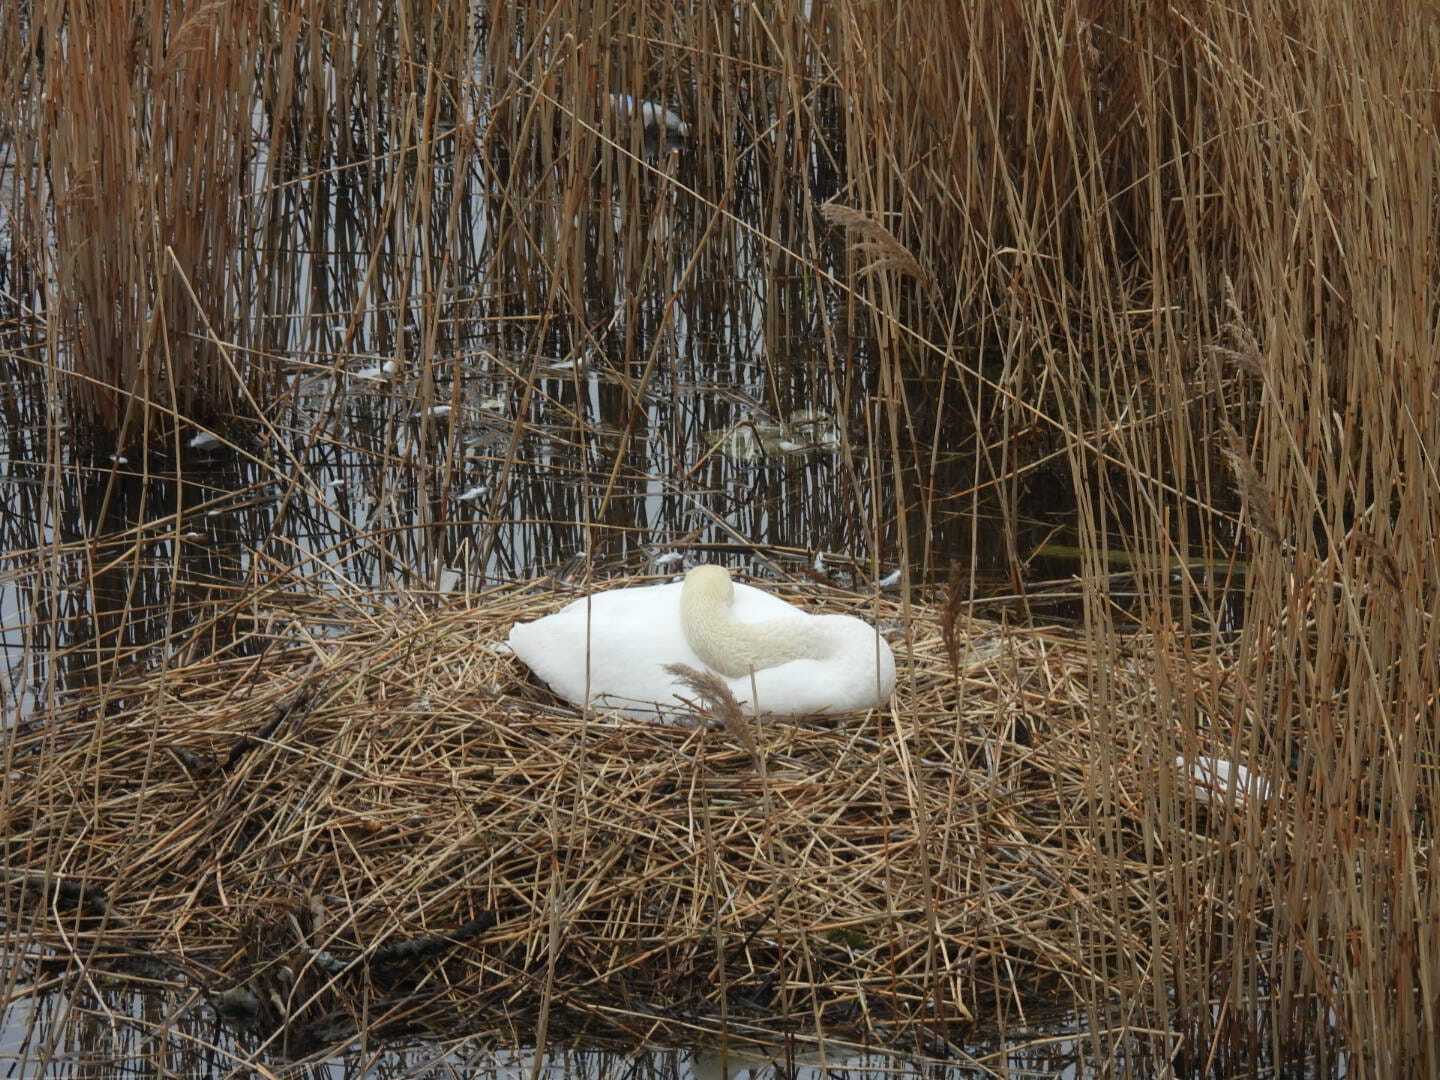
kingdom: Animalia
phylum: Chordata
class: Aves
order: Anseriformes
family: Anatidae
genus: Cygnus
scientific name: Cygnus olor
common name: Mute swan
